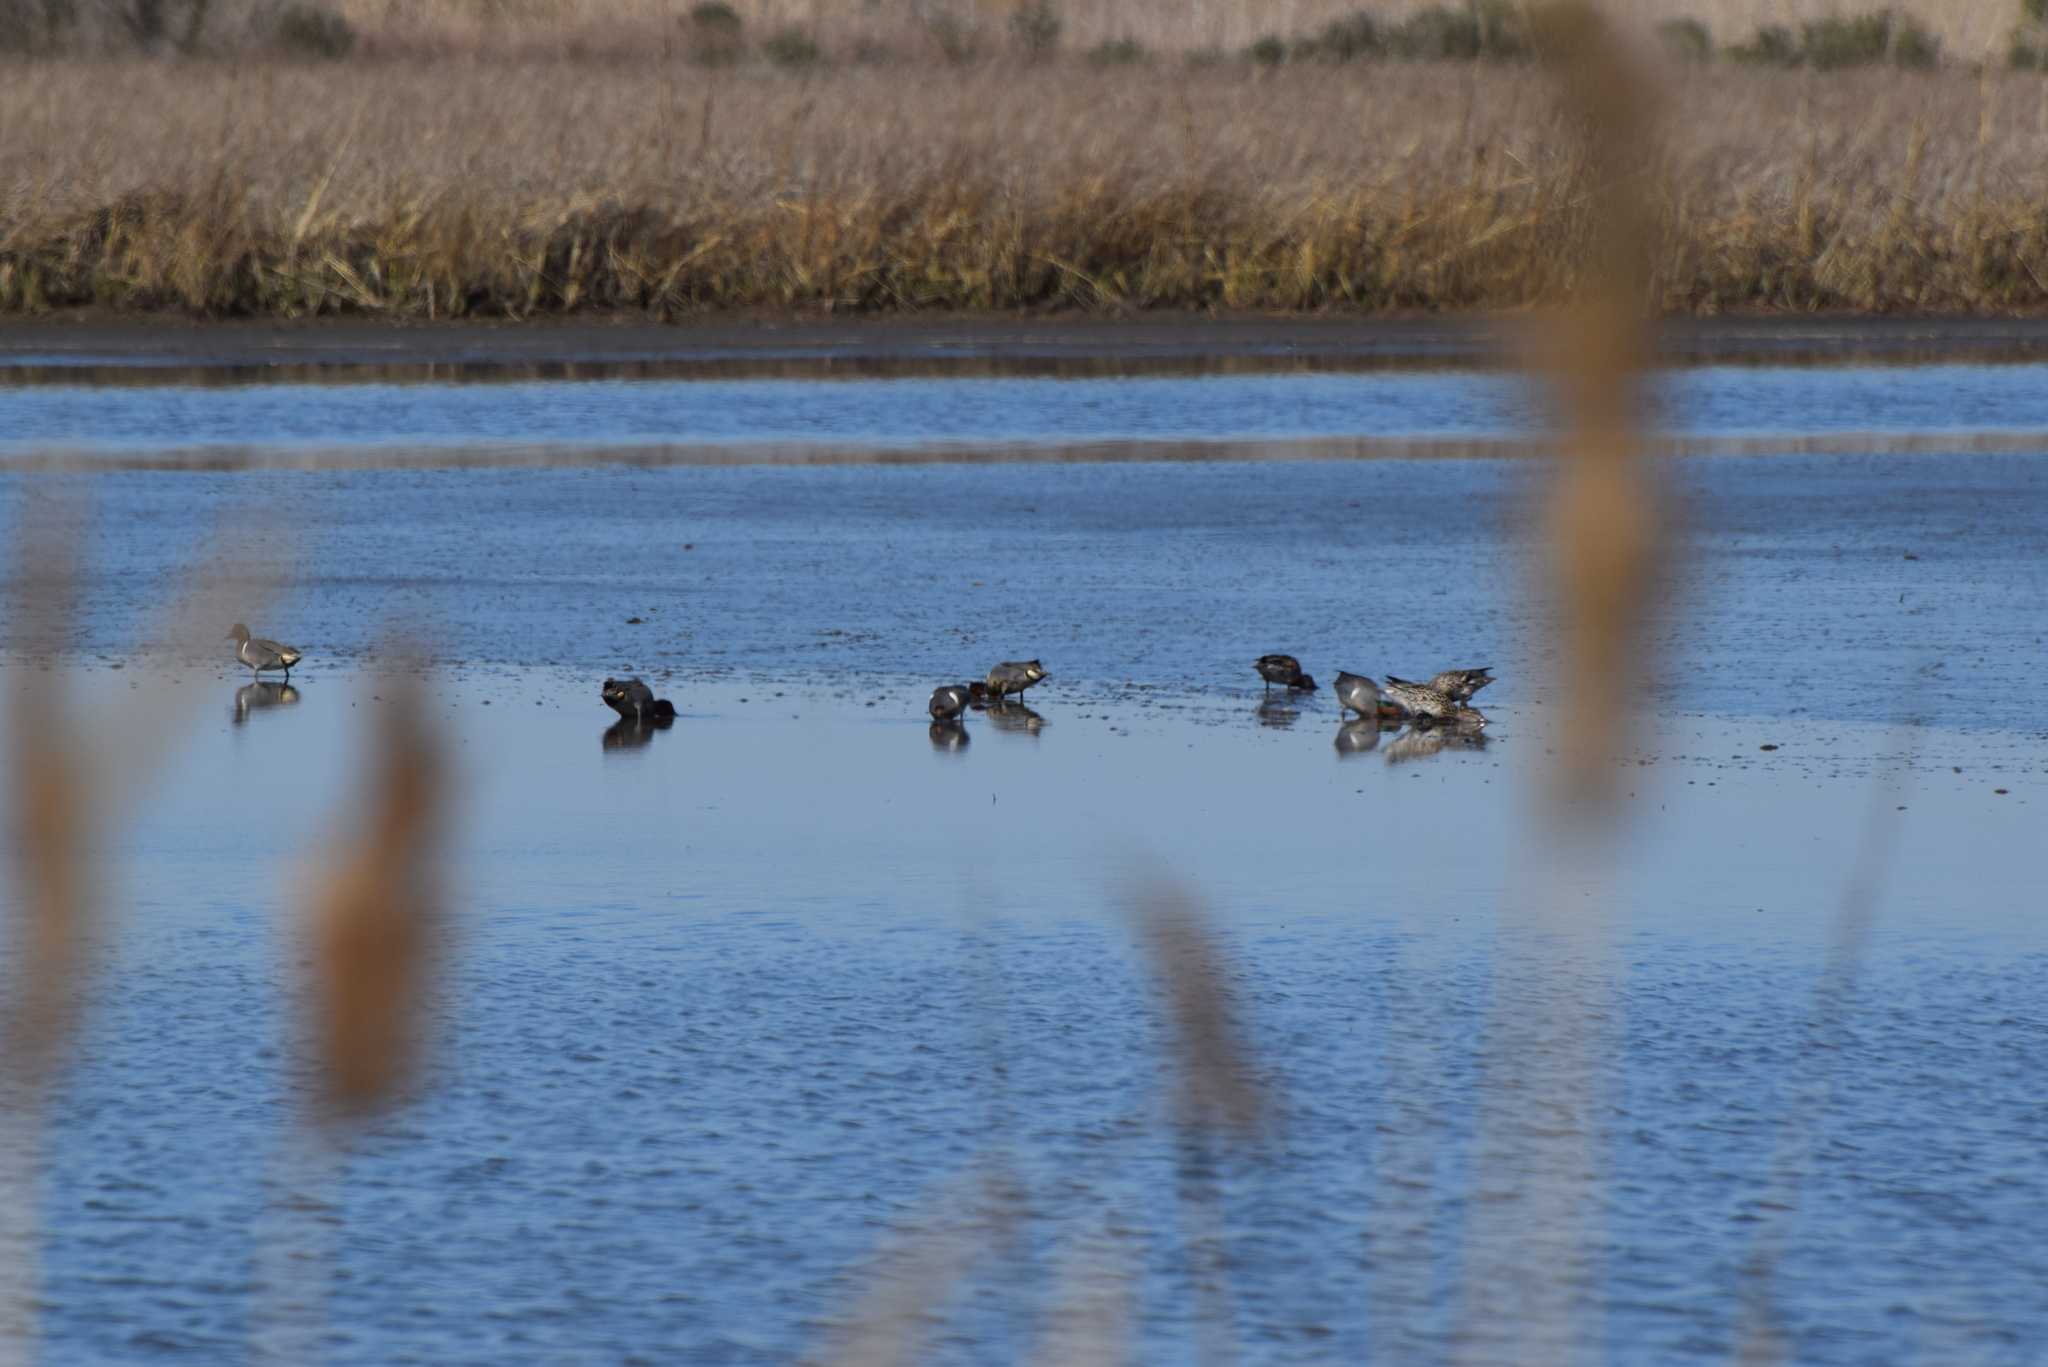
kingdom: Animalia
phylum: Chordata
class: Aves
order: Anseriformes
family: Anatidae
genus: Anas
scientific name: Anas crecca
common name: Eurasian teal
